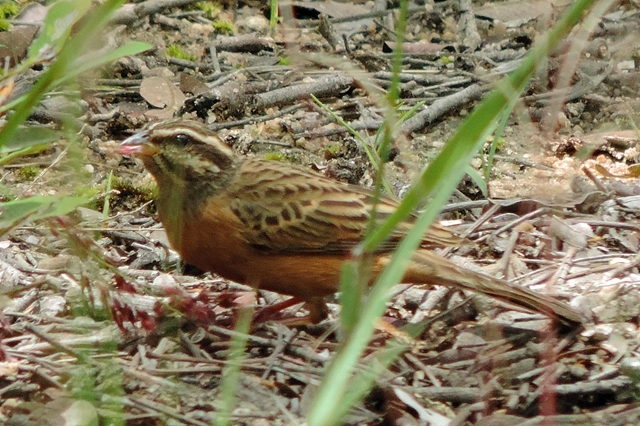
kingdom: Animalia
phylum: Chordata
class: Aves
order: Passeriformes
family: Emberizidae
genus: Emberiza
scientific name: Emberiza tahapisi
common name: Cinnamon-breasted bunting
